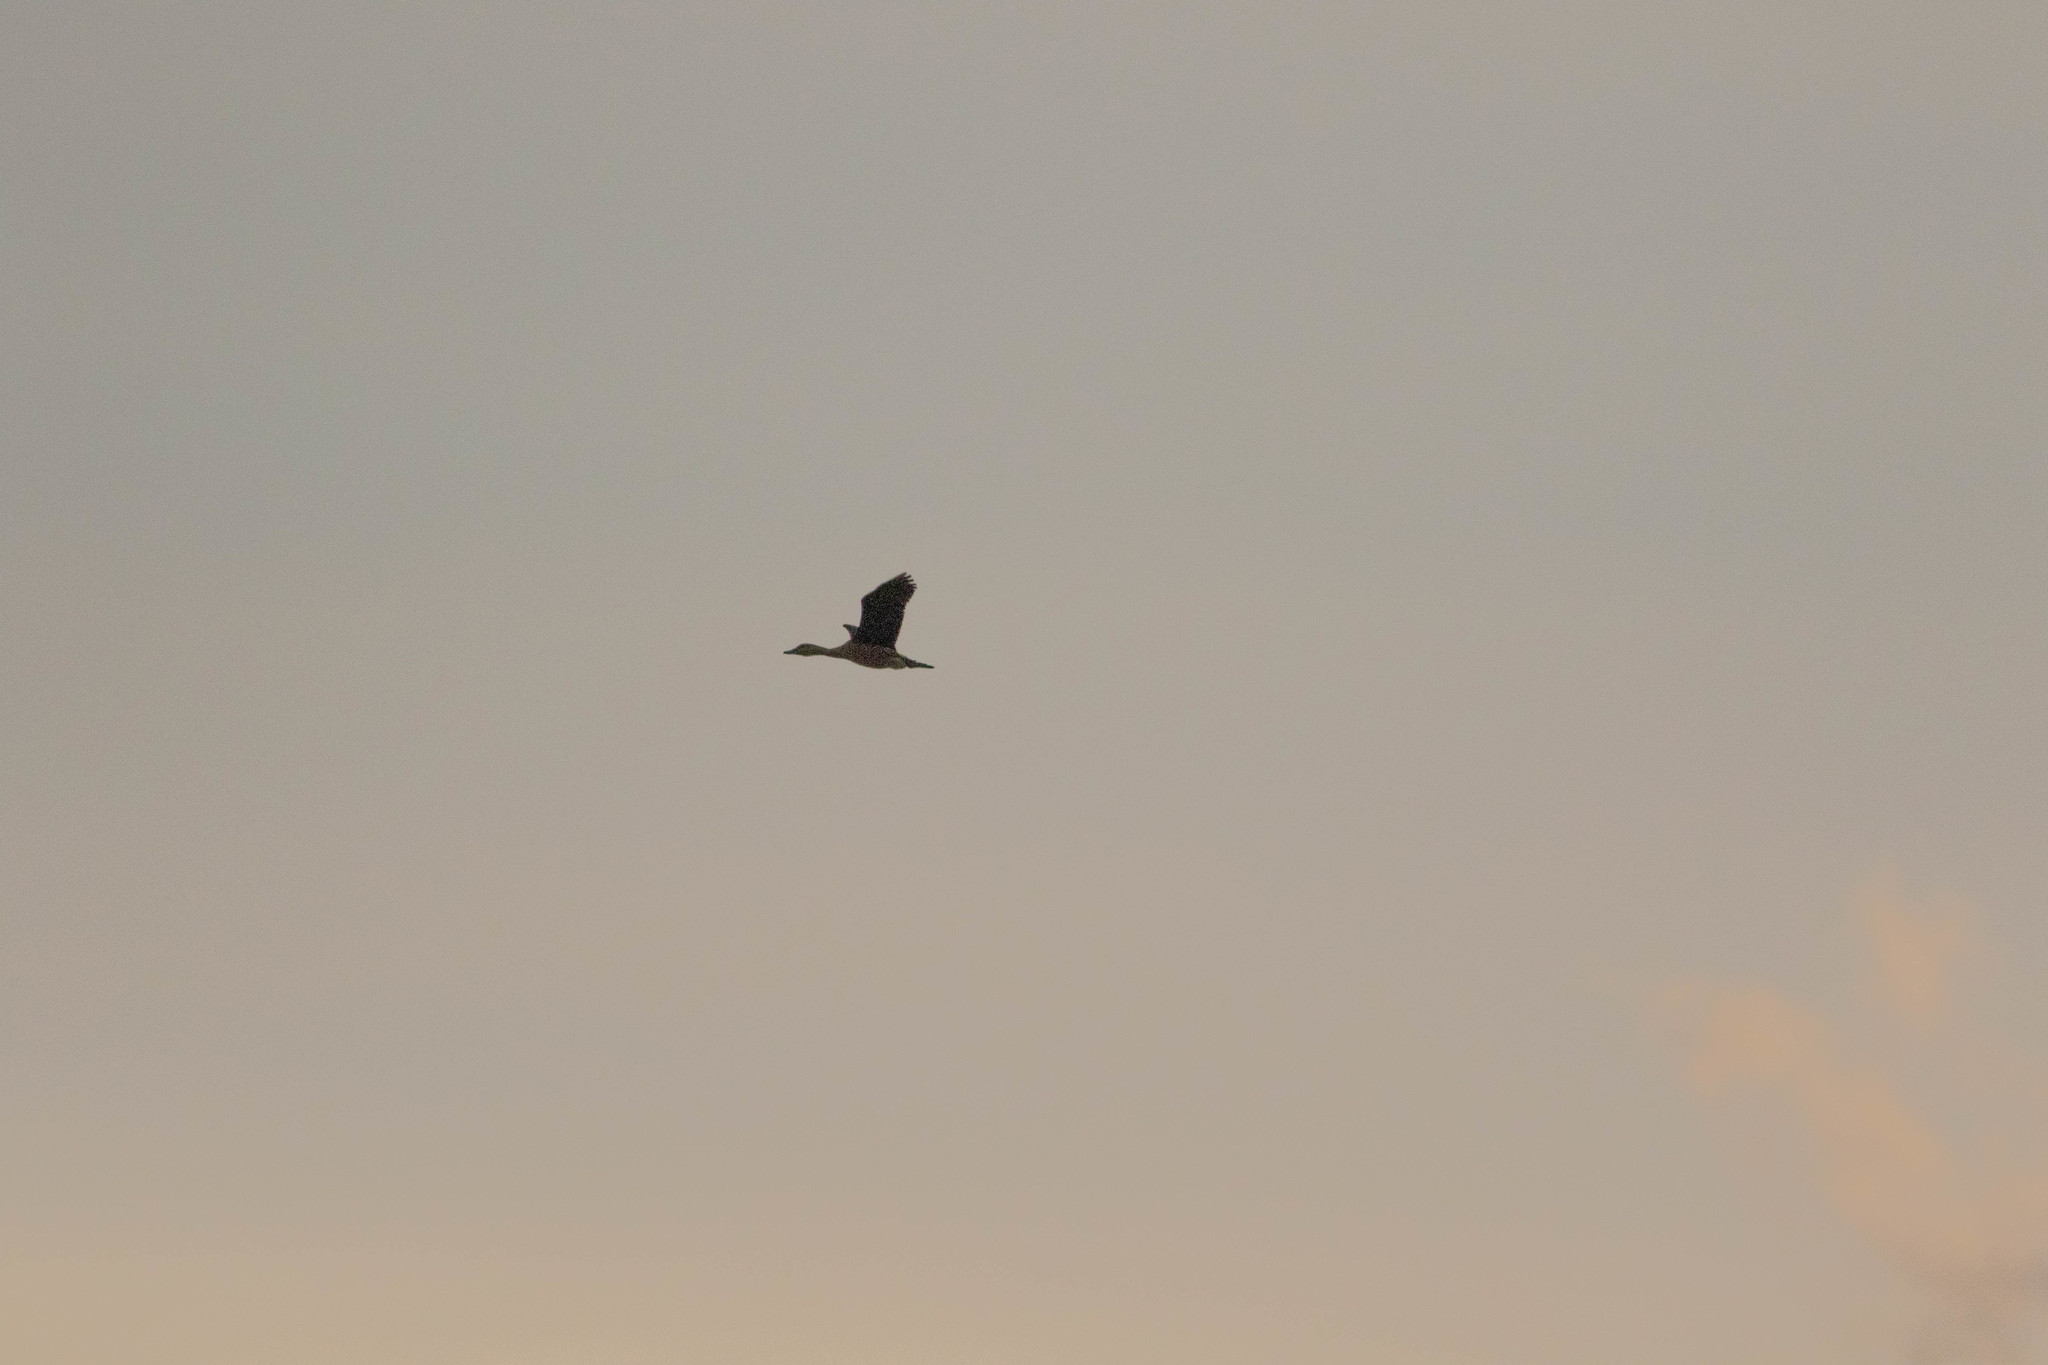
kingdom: Animalia
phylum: Chordata
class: Aves
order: Anseriformes
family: Anatidae
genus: Dendrocygna
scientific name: Dendrocygna bicolor
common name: Fulvous whistling duck
